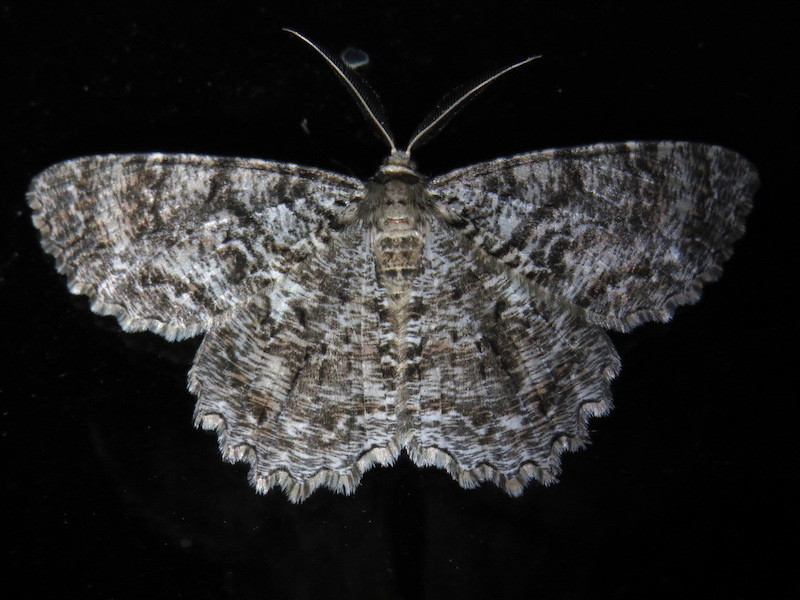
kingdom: Animalia
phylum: Arthropoda
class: Insecta
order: Lepidoptera
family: Geometridae
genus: Epimecis
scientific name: Epimecis hortaria
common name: Tulip-tree beauty
